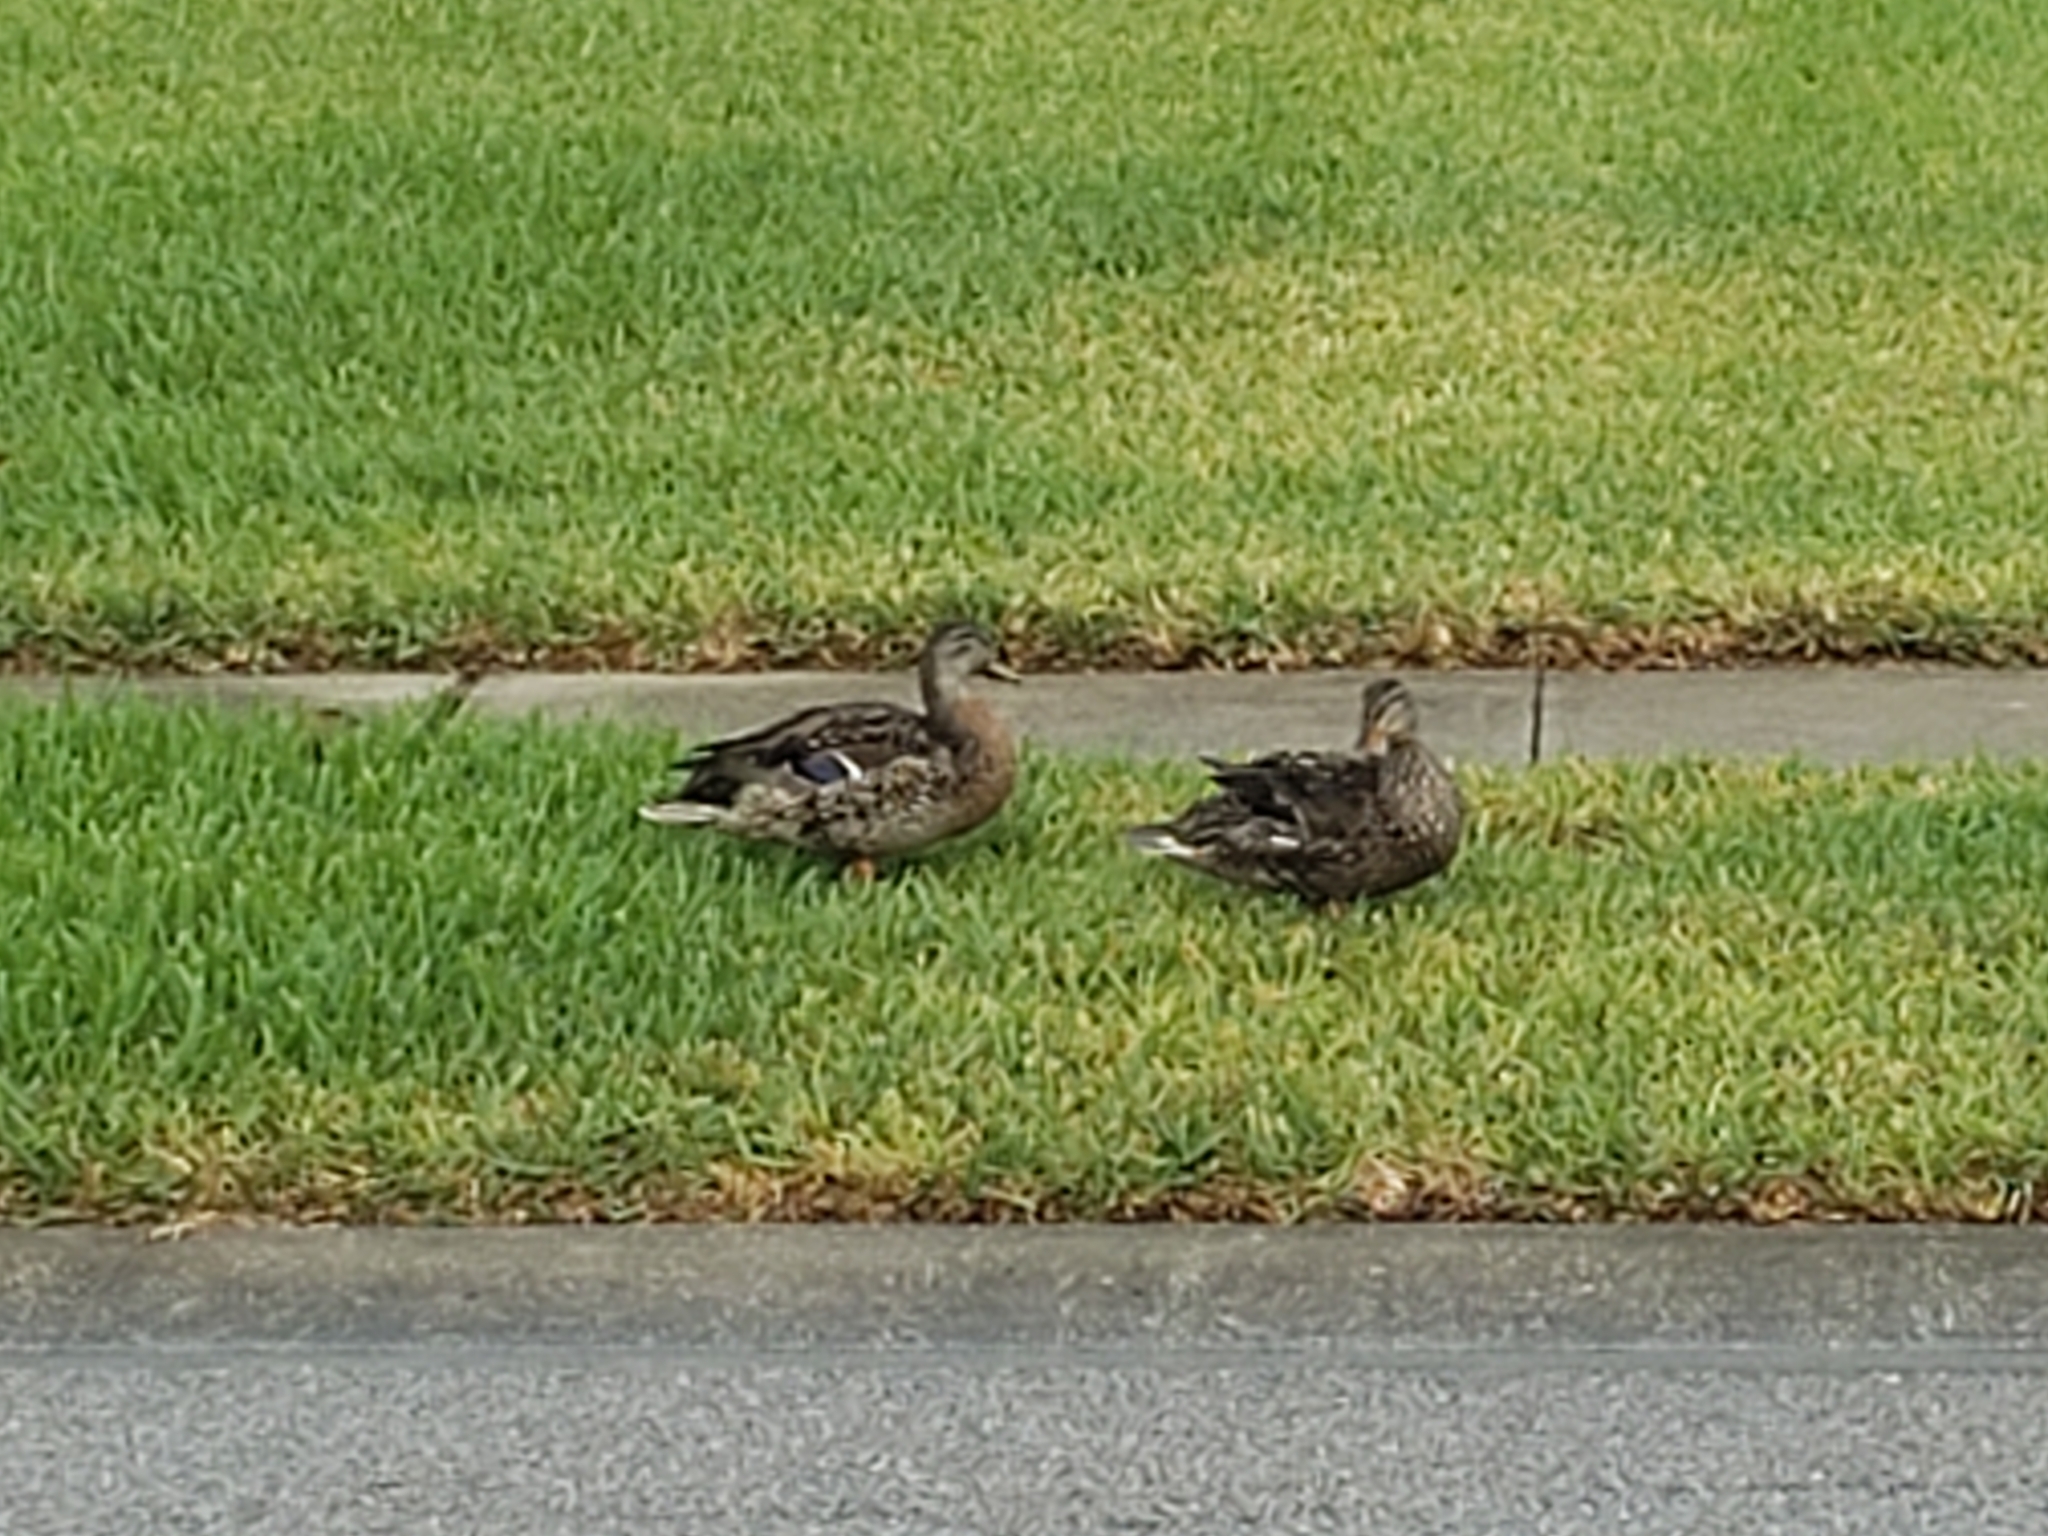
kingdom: Animalia
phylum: Chordata
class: Aves
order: Anseriformes
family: Anatidae
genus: Anas
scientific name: Anas platyrhynchos
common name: Mallard
